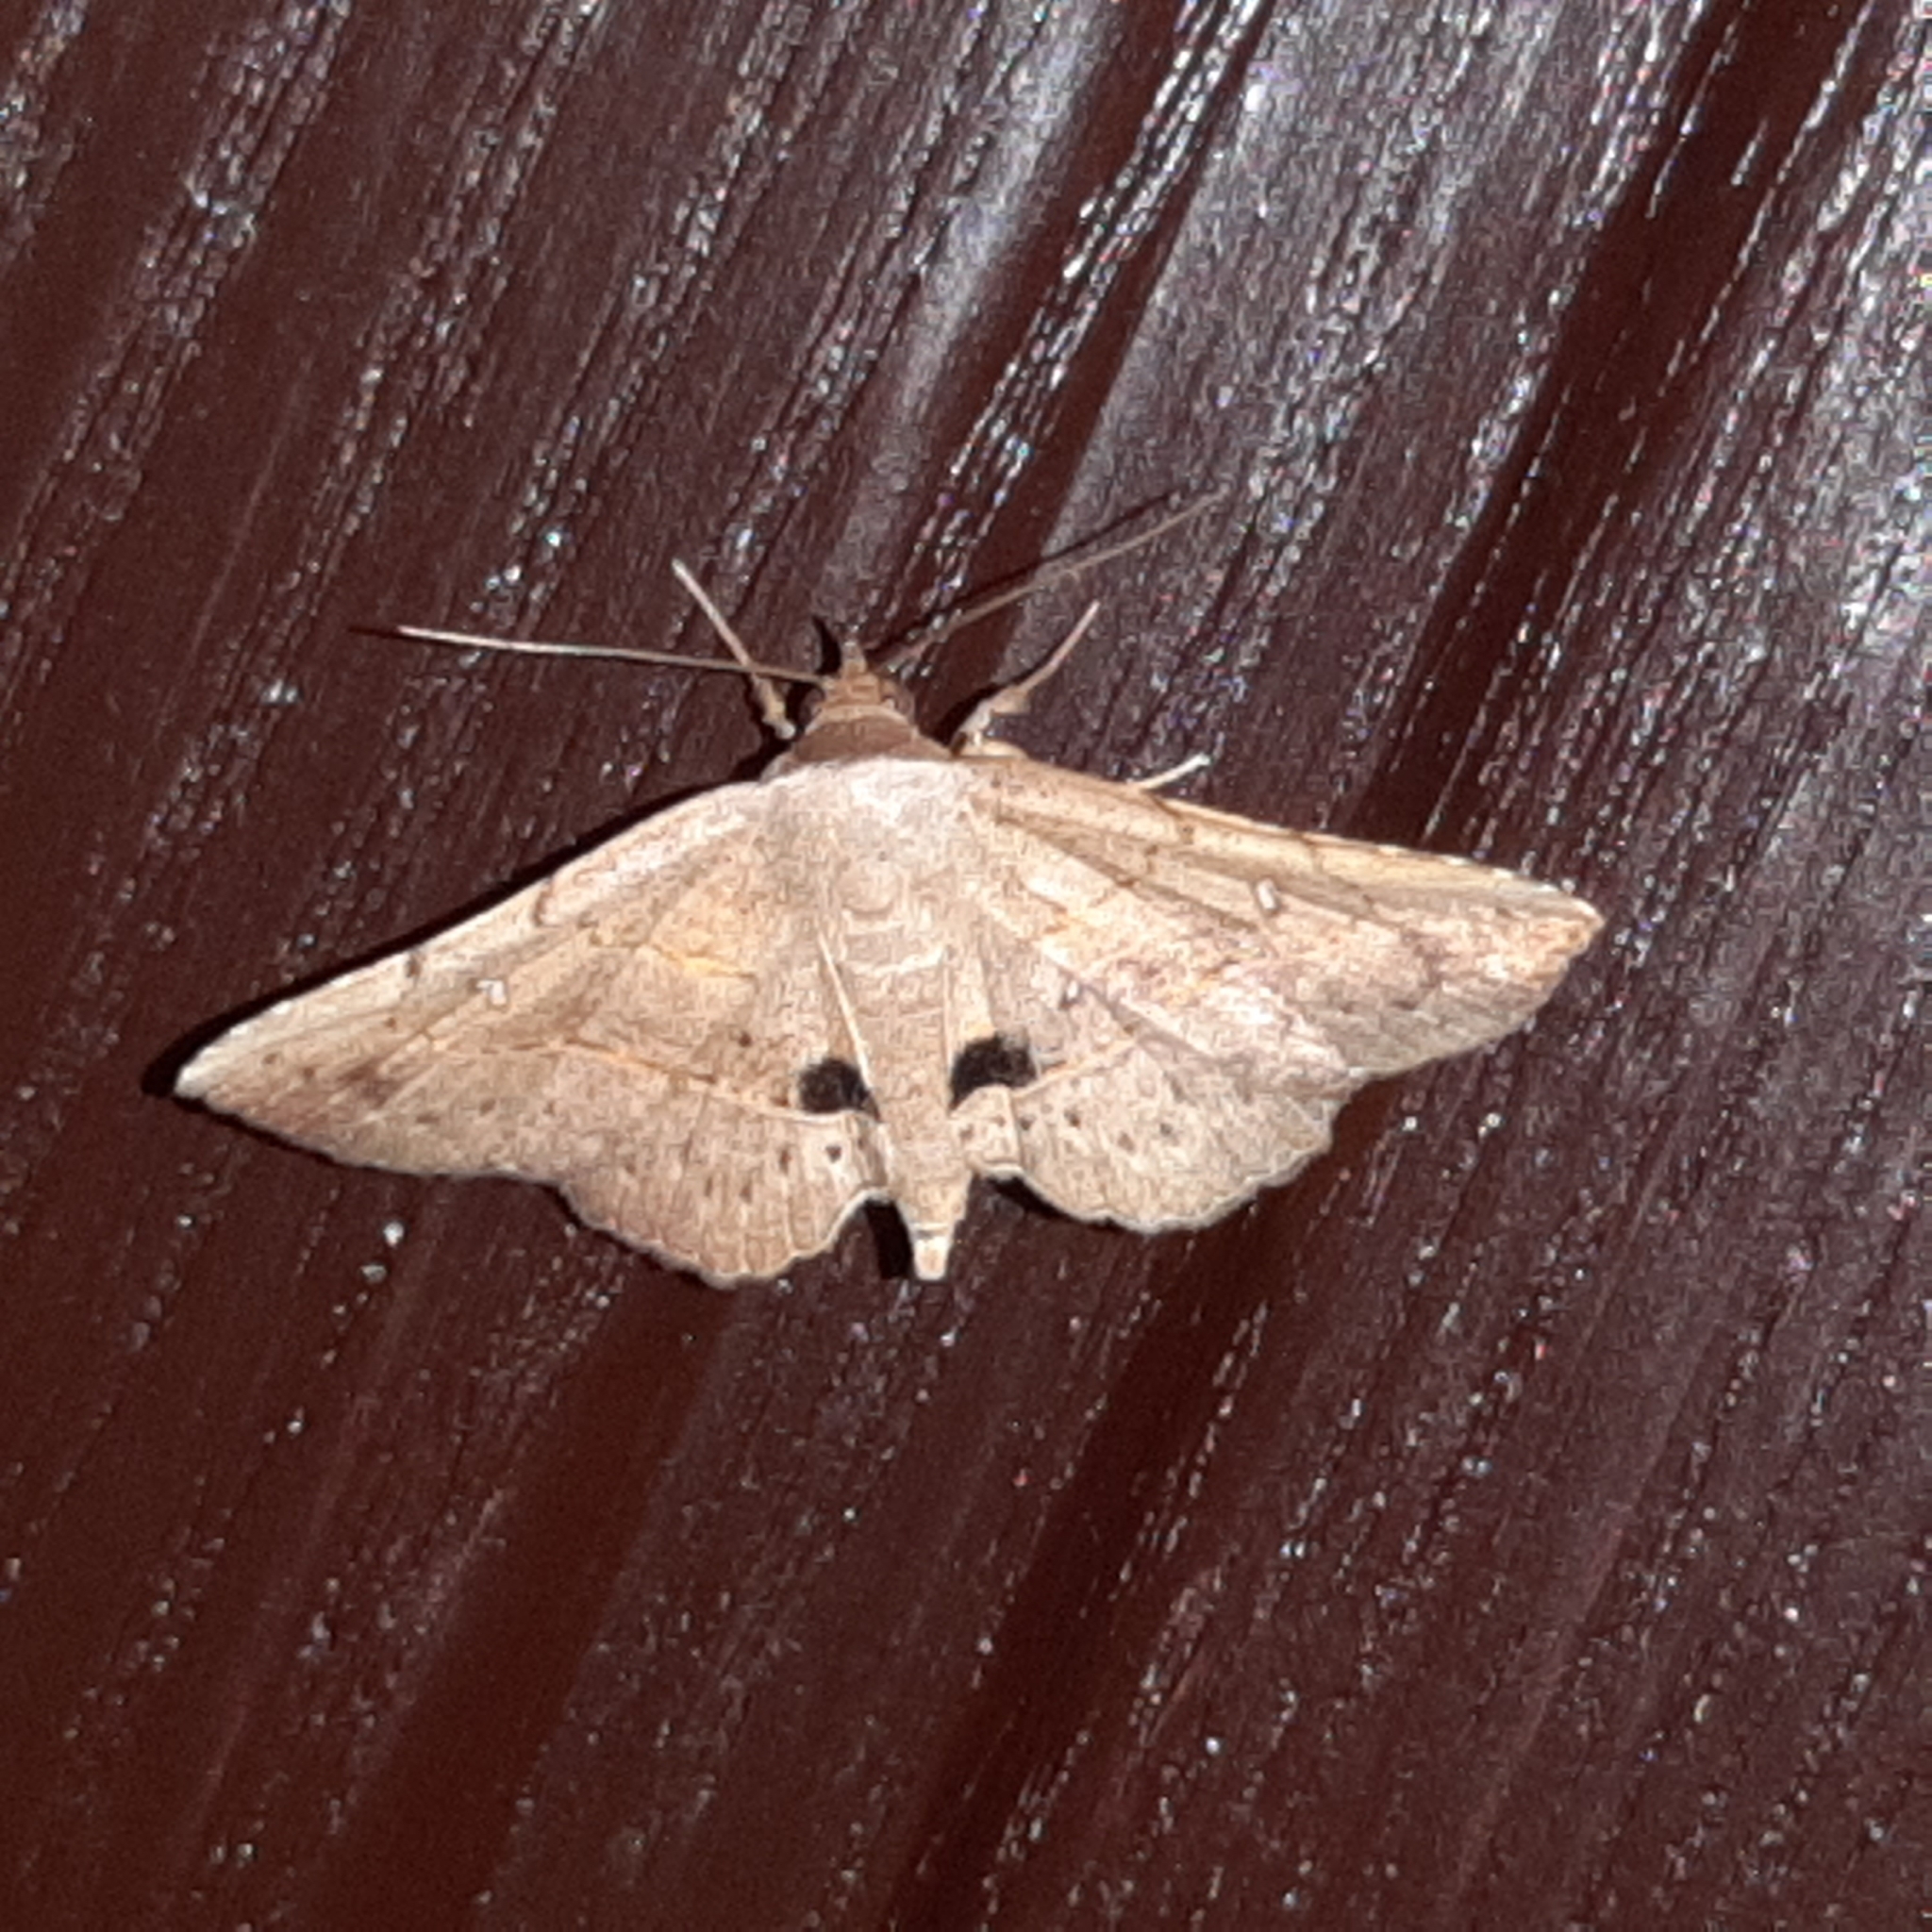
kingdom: Animalia
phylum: Arthropoda
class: Insecta
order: Lepidoptera
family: Erebidae
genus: Renodes
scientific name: Renodes curviluna
